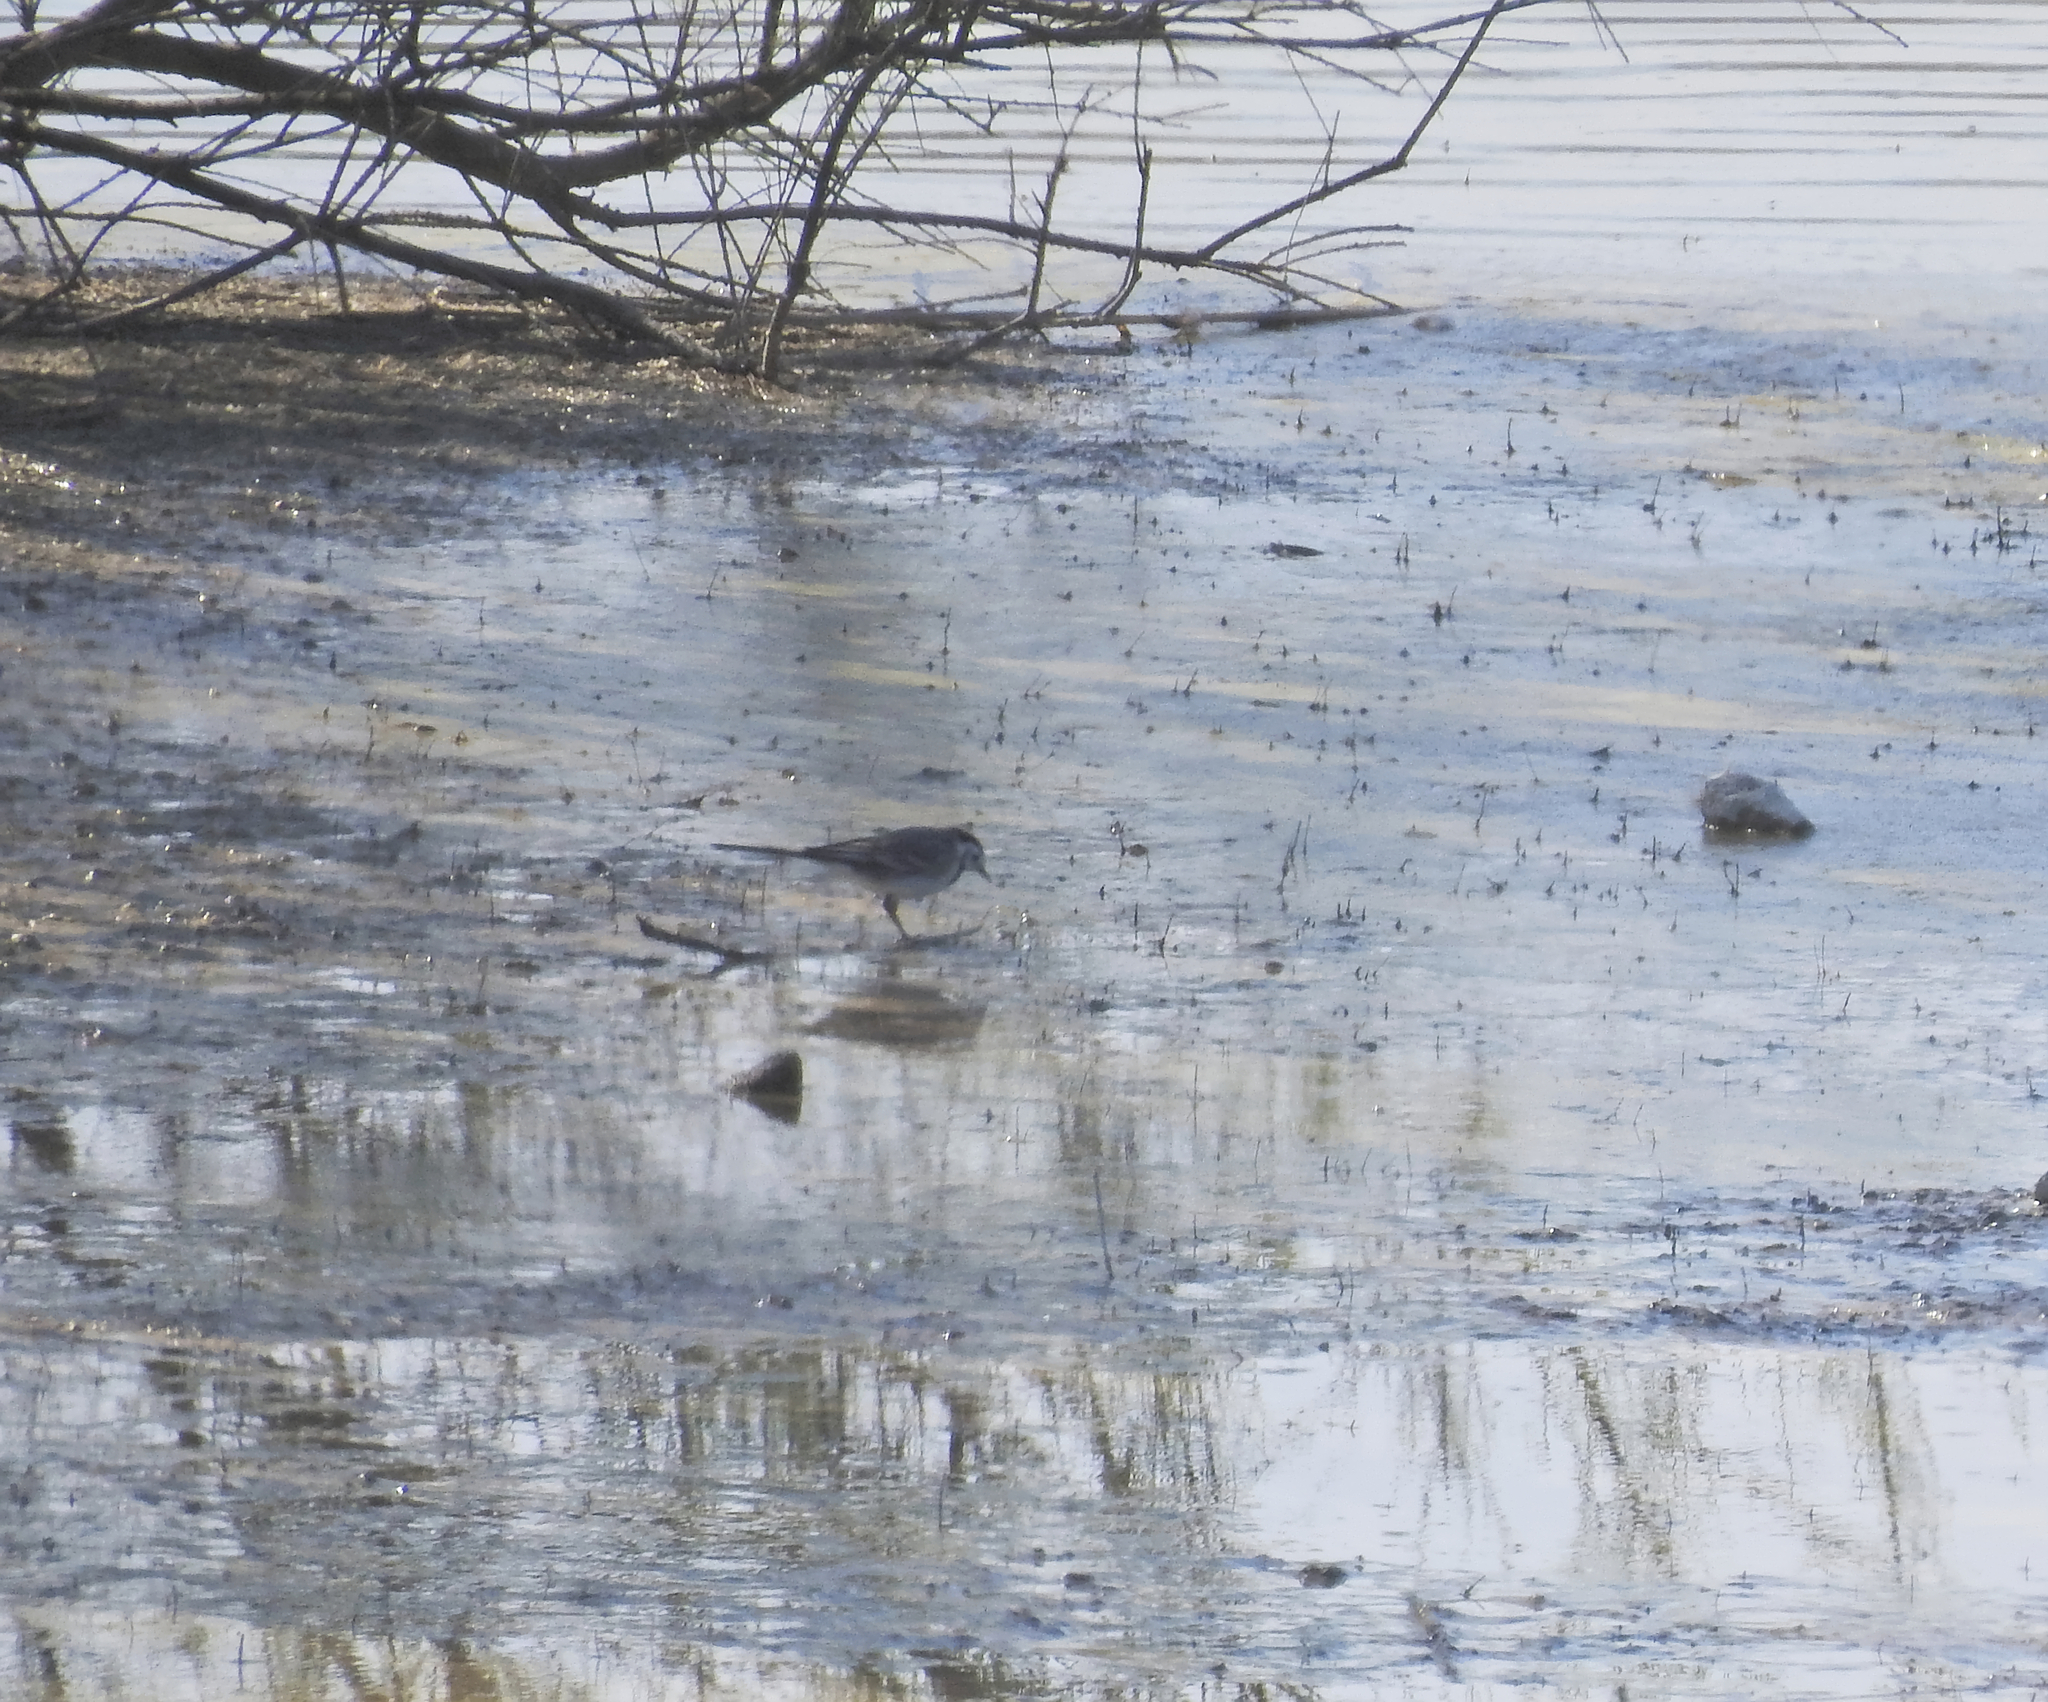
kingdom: Animalia
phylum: Chordata
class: Aves
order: Passeriformes
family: Motacillidae
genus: Motacilla
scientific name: Motacilla alba
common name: White wagtail
